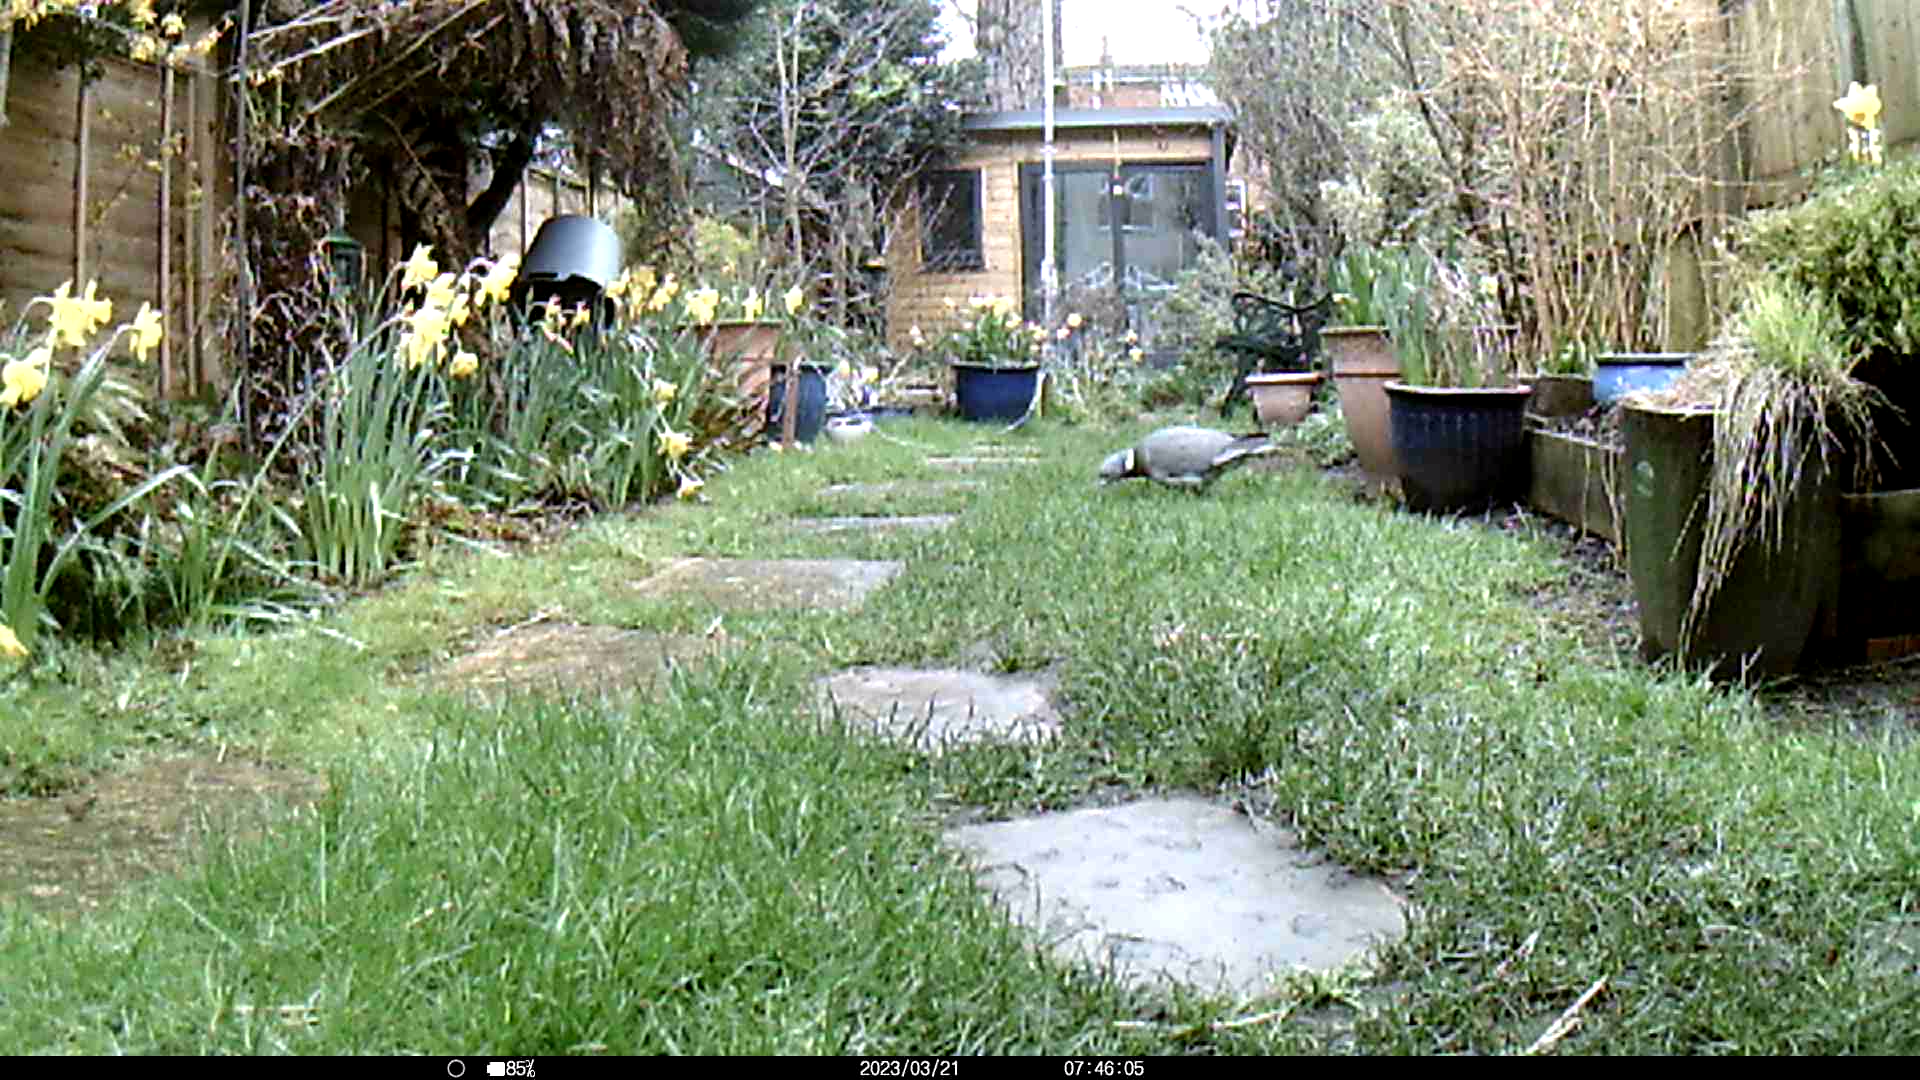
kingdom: Animalia
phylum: Chordata
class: Aves
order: Columbiformes
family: Columbidae
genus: Columba
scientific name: Columba palumbus
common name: Common wood pigeon
